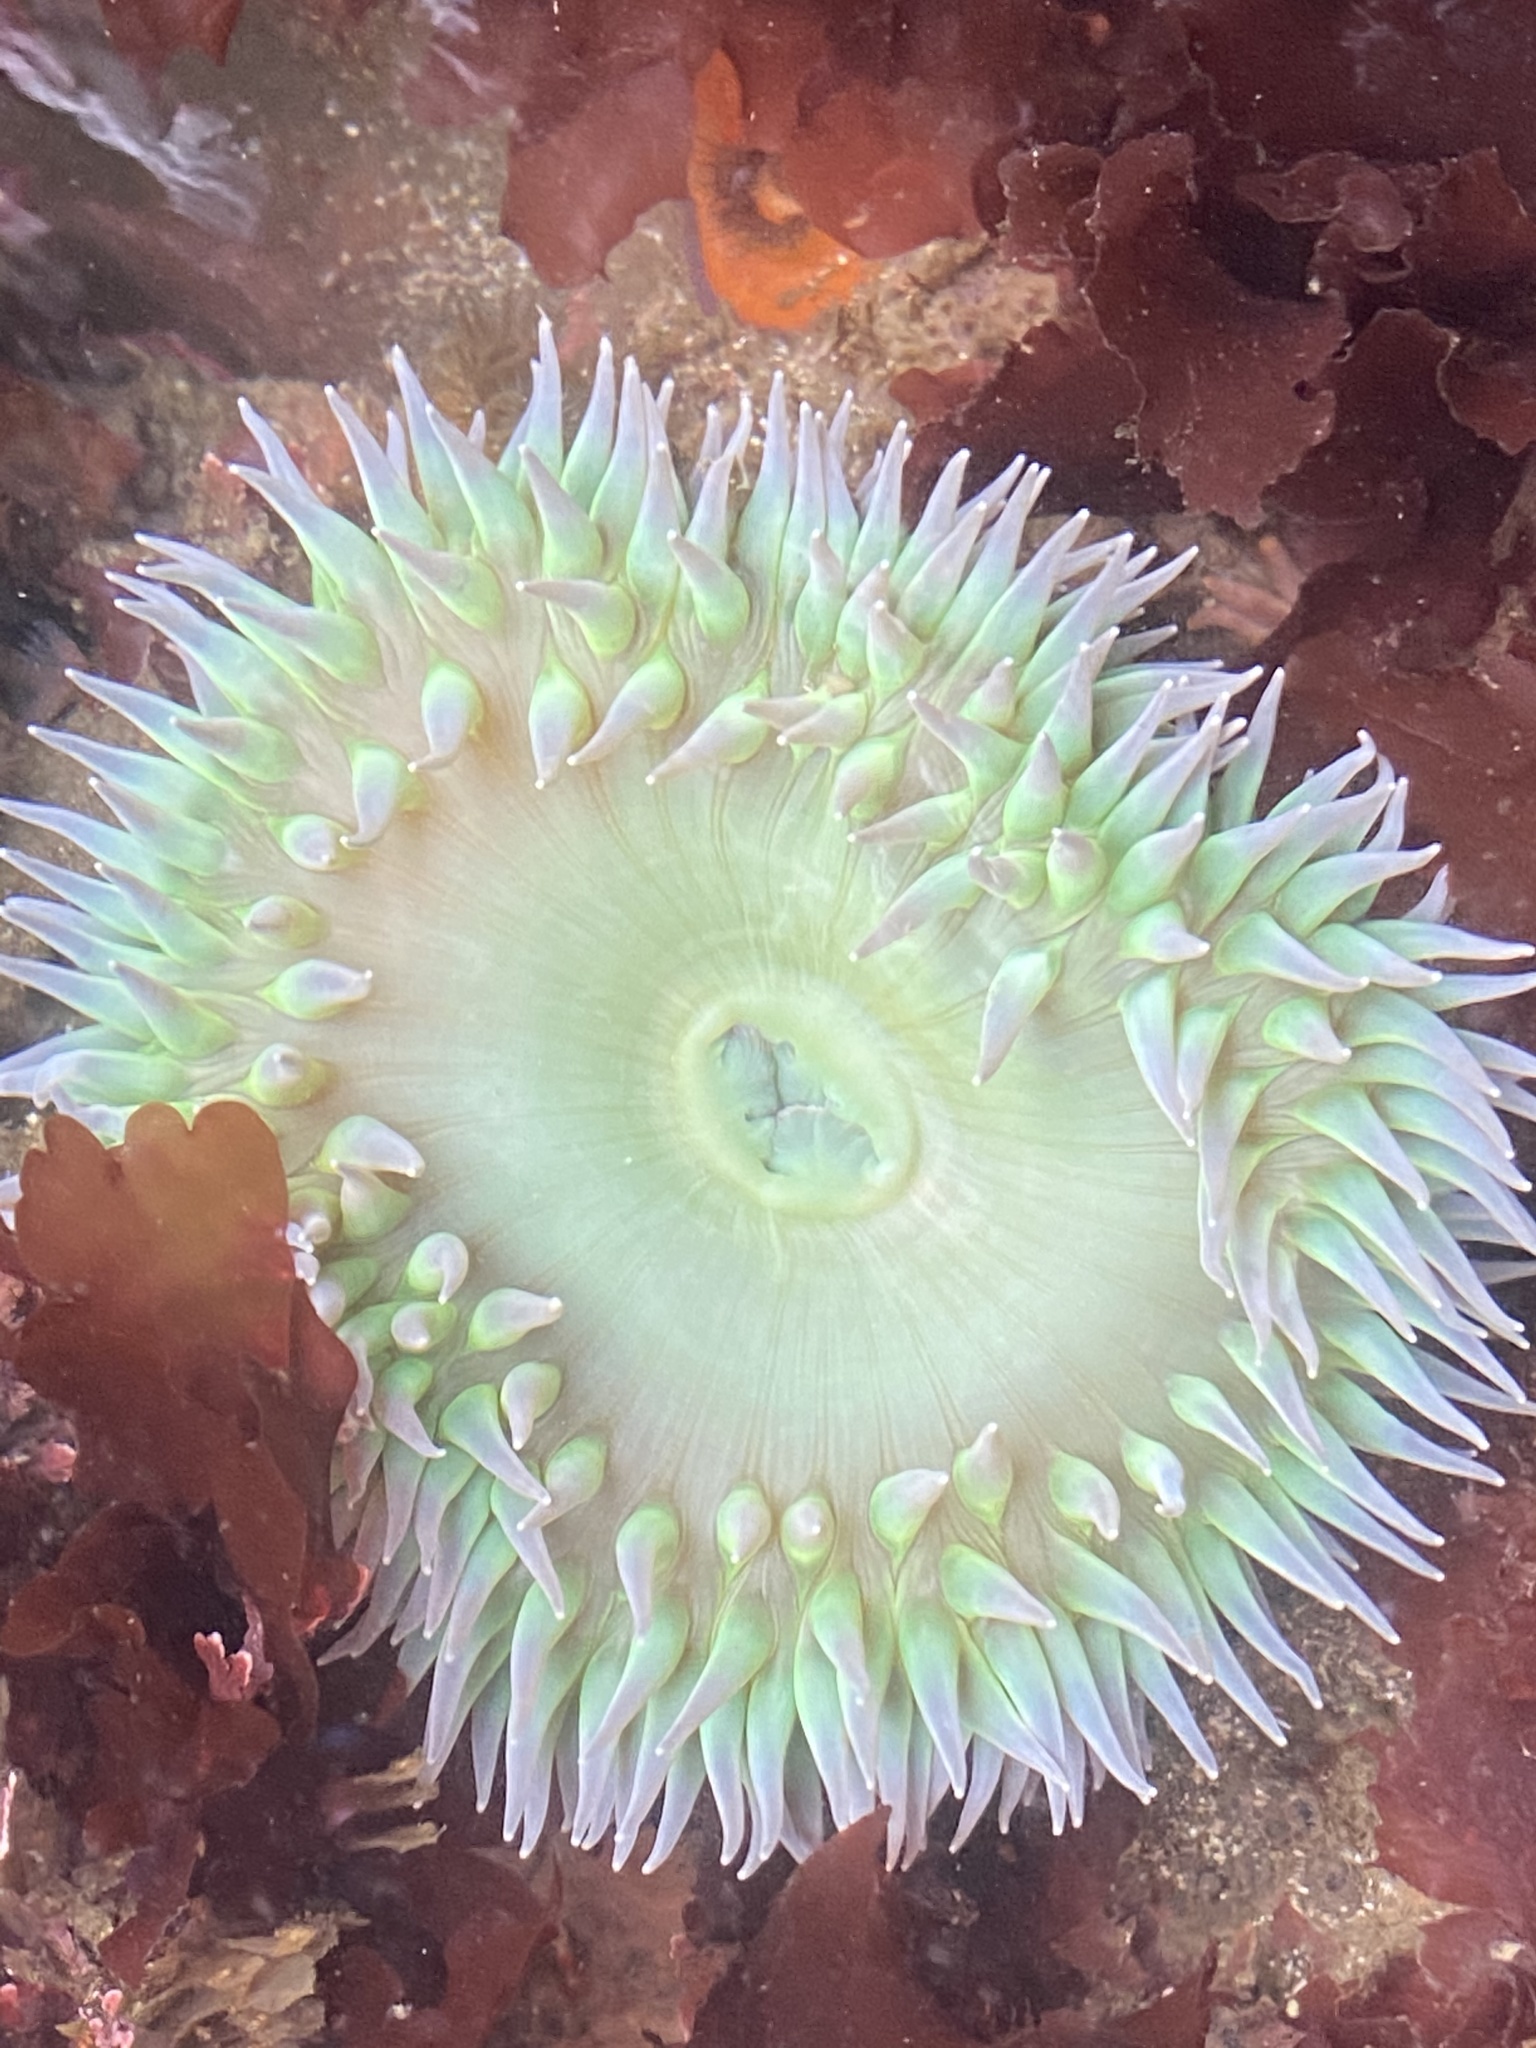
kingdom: Animalia
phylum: Cnidaria
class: Anthozoa
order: Actiniaria
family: Actiniidae
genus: Anthopleura
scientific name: Anthopleura xanthogrammica
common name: Giant green anemone
